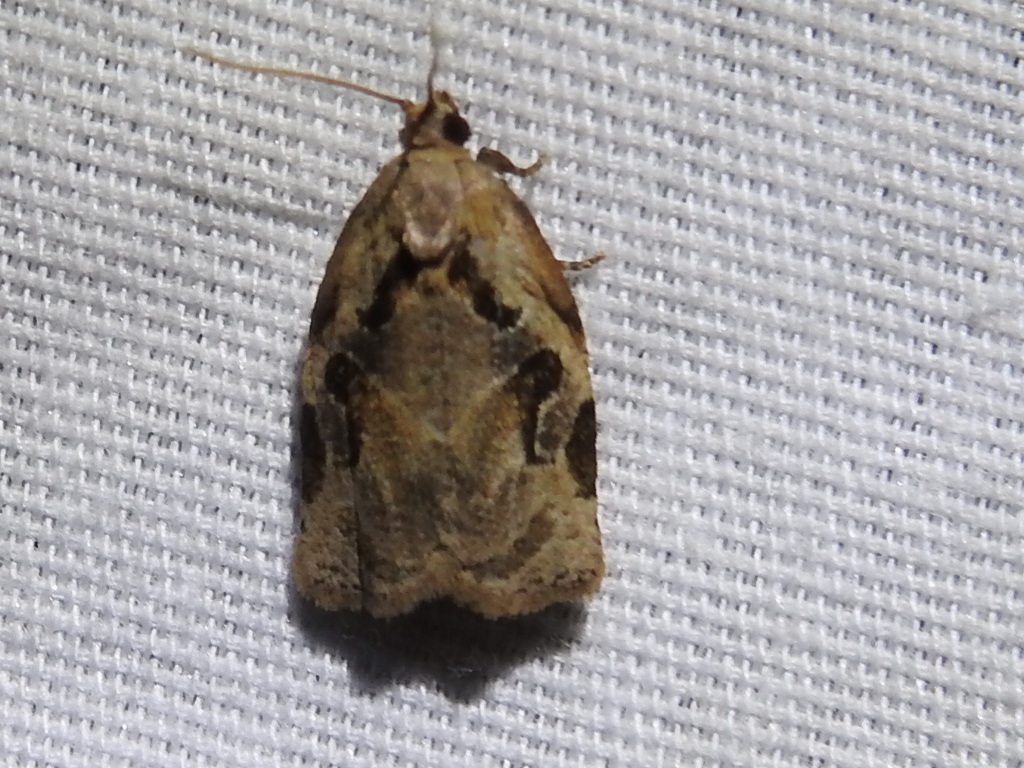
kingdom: Animalia
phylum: Arthropoda
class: Insecta
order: Lepidoptera
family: Tortricidae
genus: Archips
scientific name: Archips grisea
